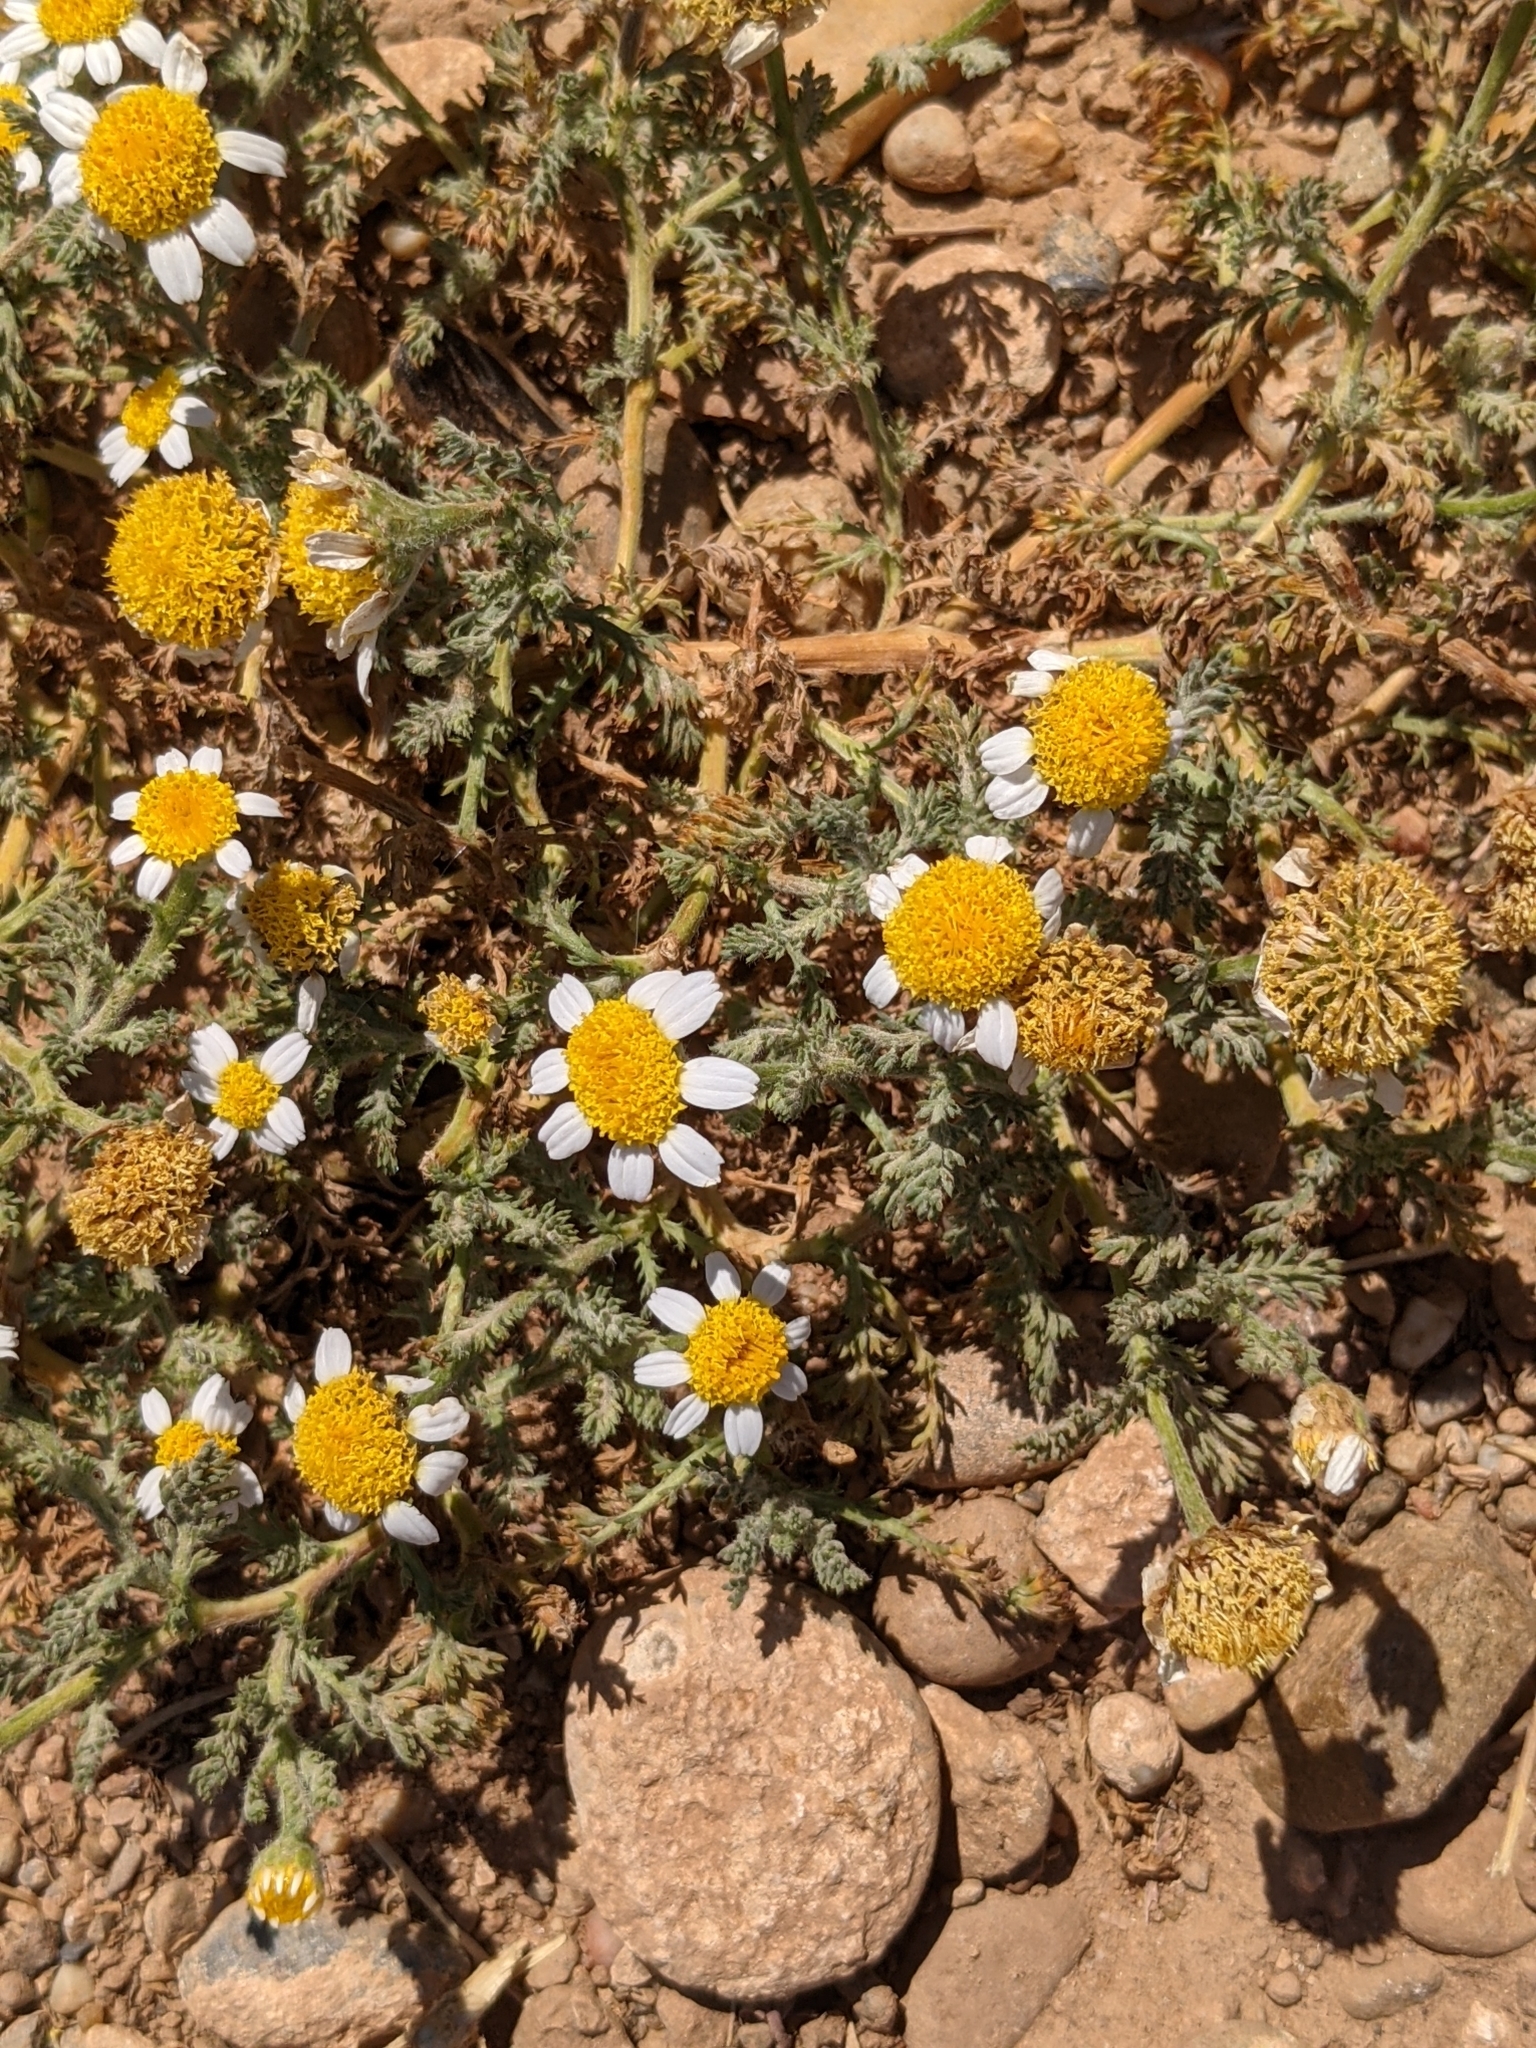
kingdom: Plantae
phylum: Tracheophyta
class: Magnoliopsida
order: Asterales
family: Asteraceae
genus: Anacyclus
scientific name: Anacyclus clavatus
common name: Whitebuttons
